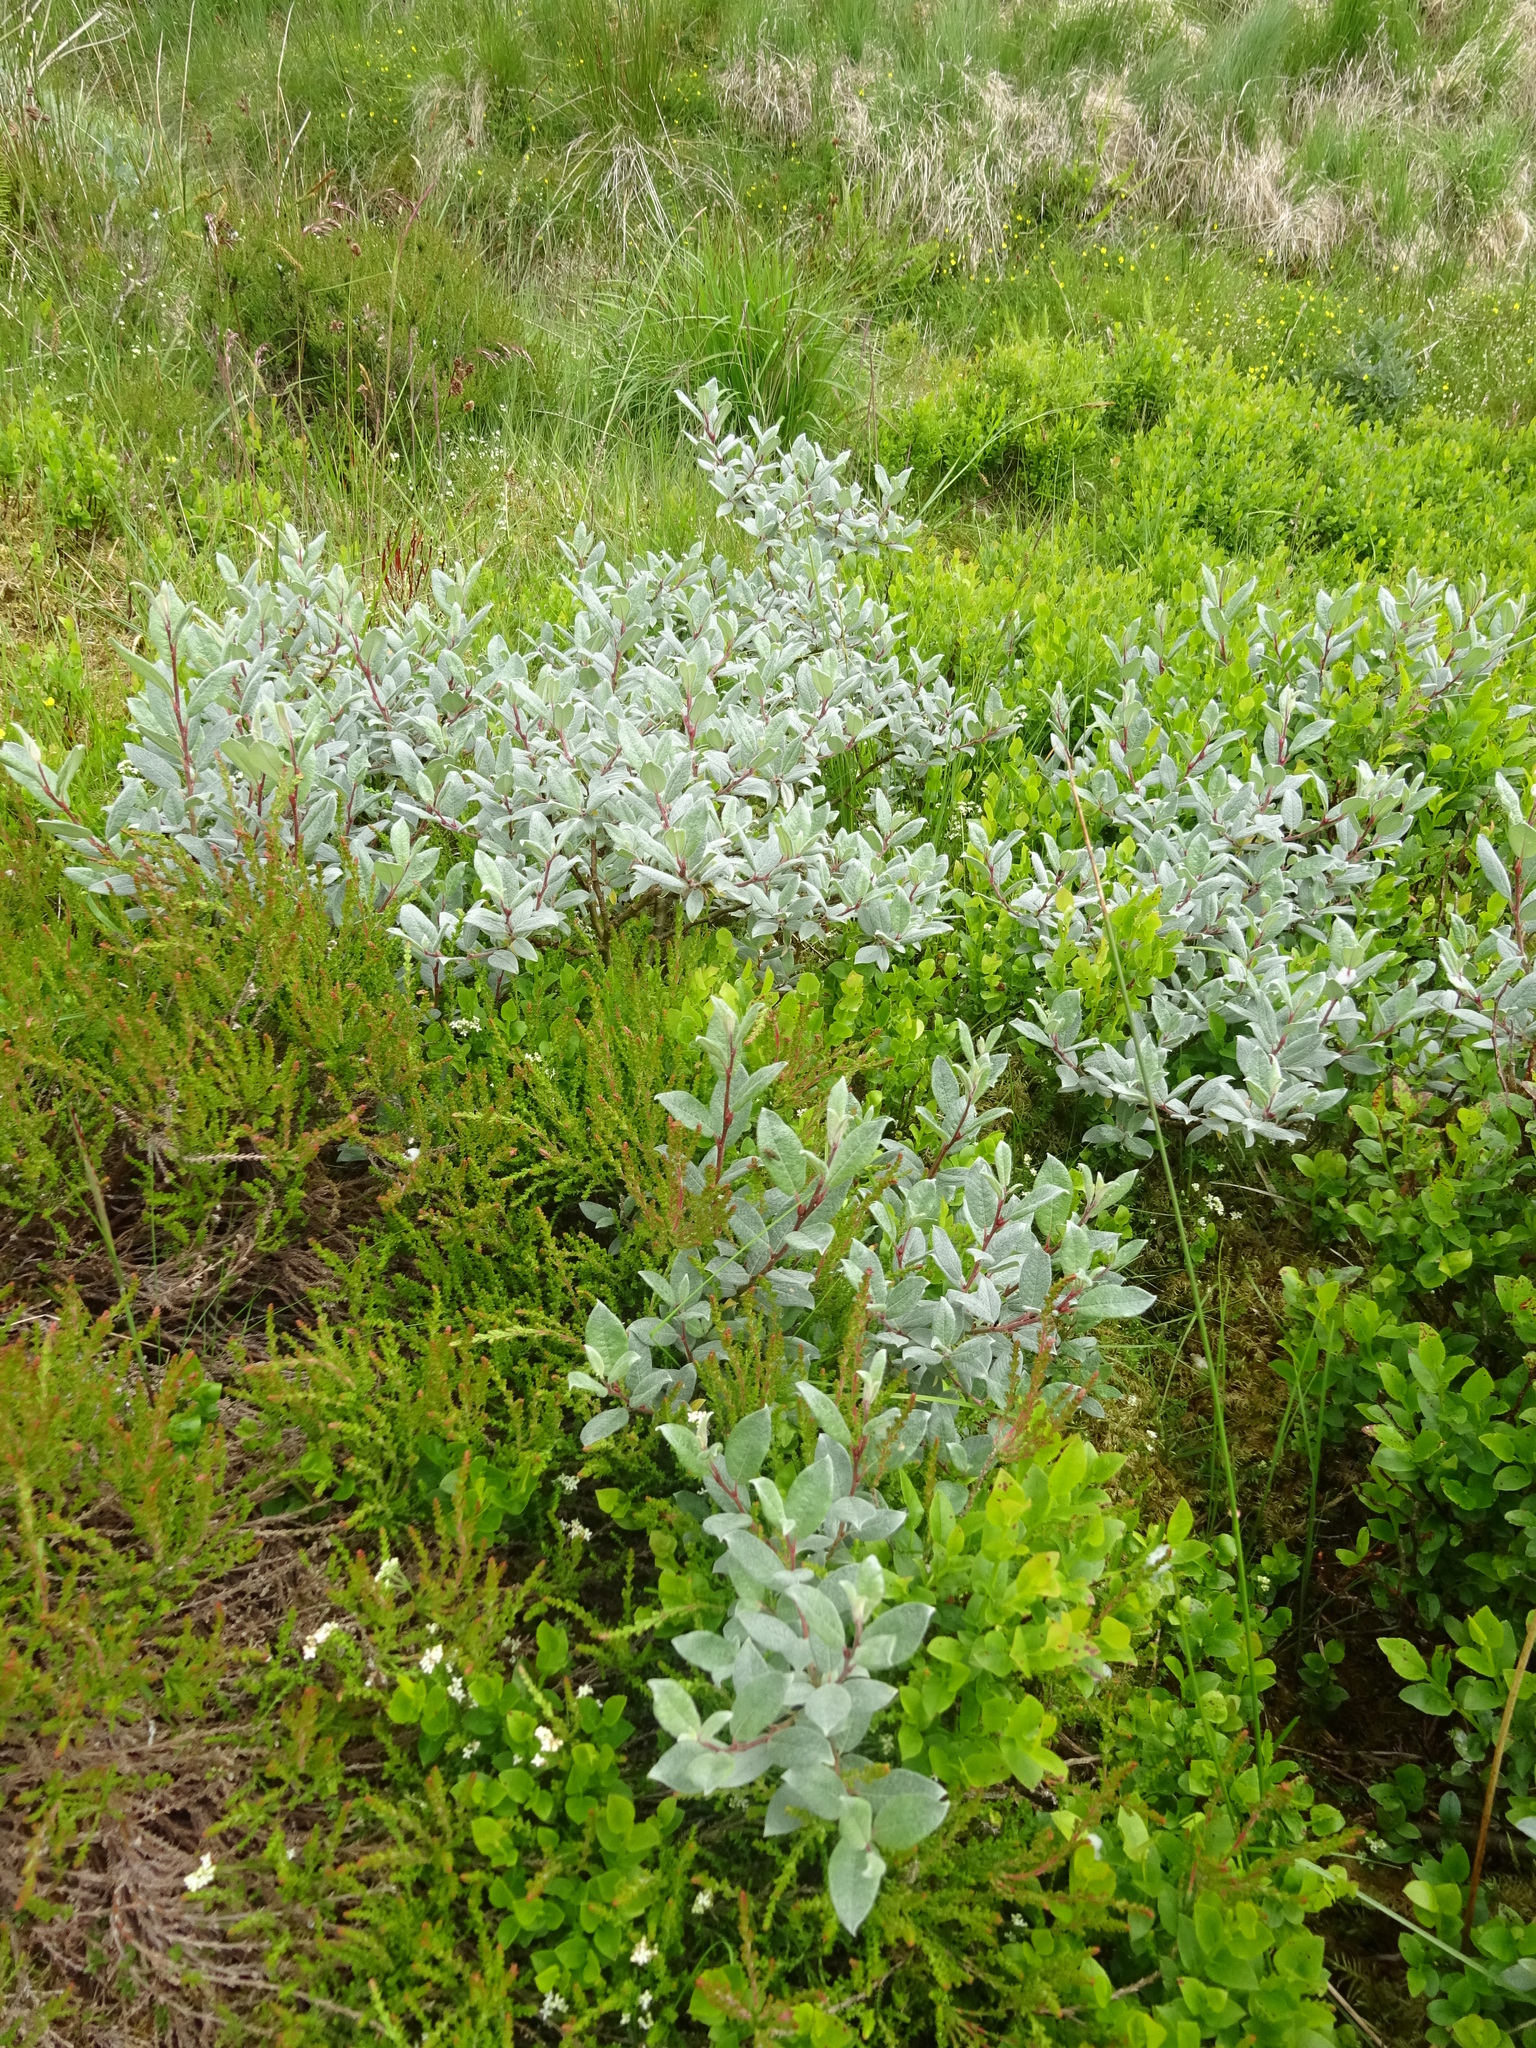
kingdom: Plantae
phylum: Tracheophyta
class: Magnoliopsida
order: Malpighiales
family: Salicaceae
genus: Salix
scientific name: Salix lapponum
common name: Downy willow
